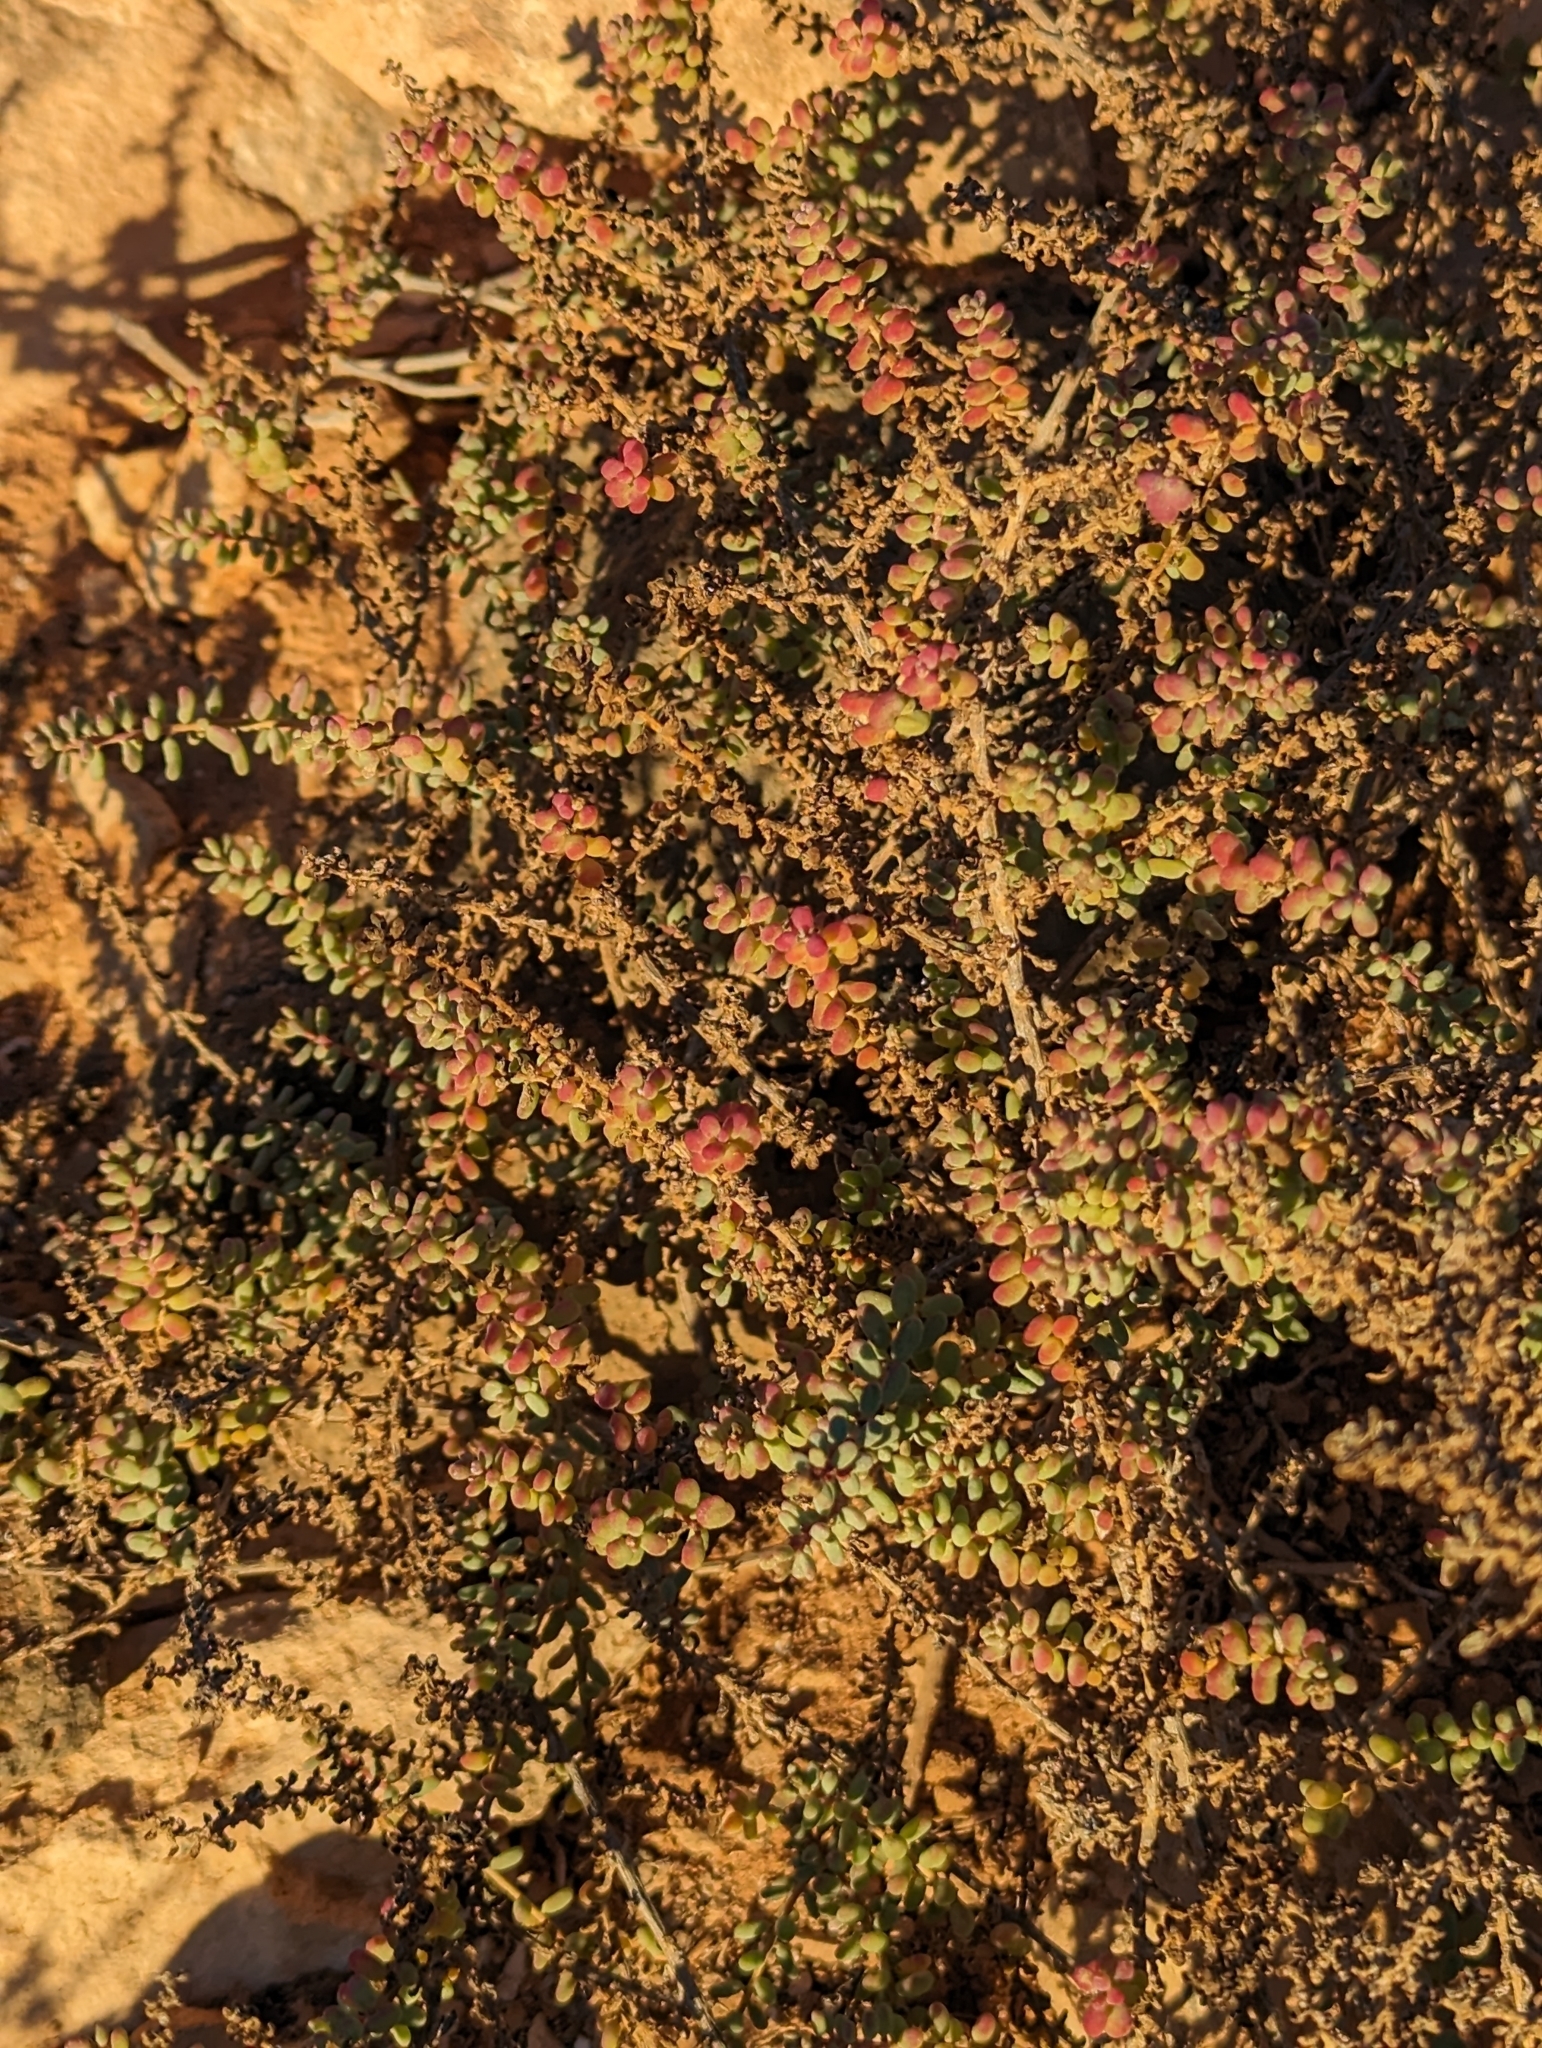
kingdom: Plantae
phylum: Tracheophyta
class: Magnoliopsida
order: Caryophyllales
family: Amaranthaceae
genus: Suaeda
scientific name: Suaeda vermiculata
